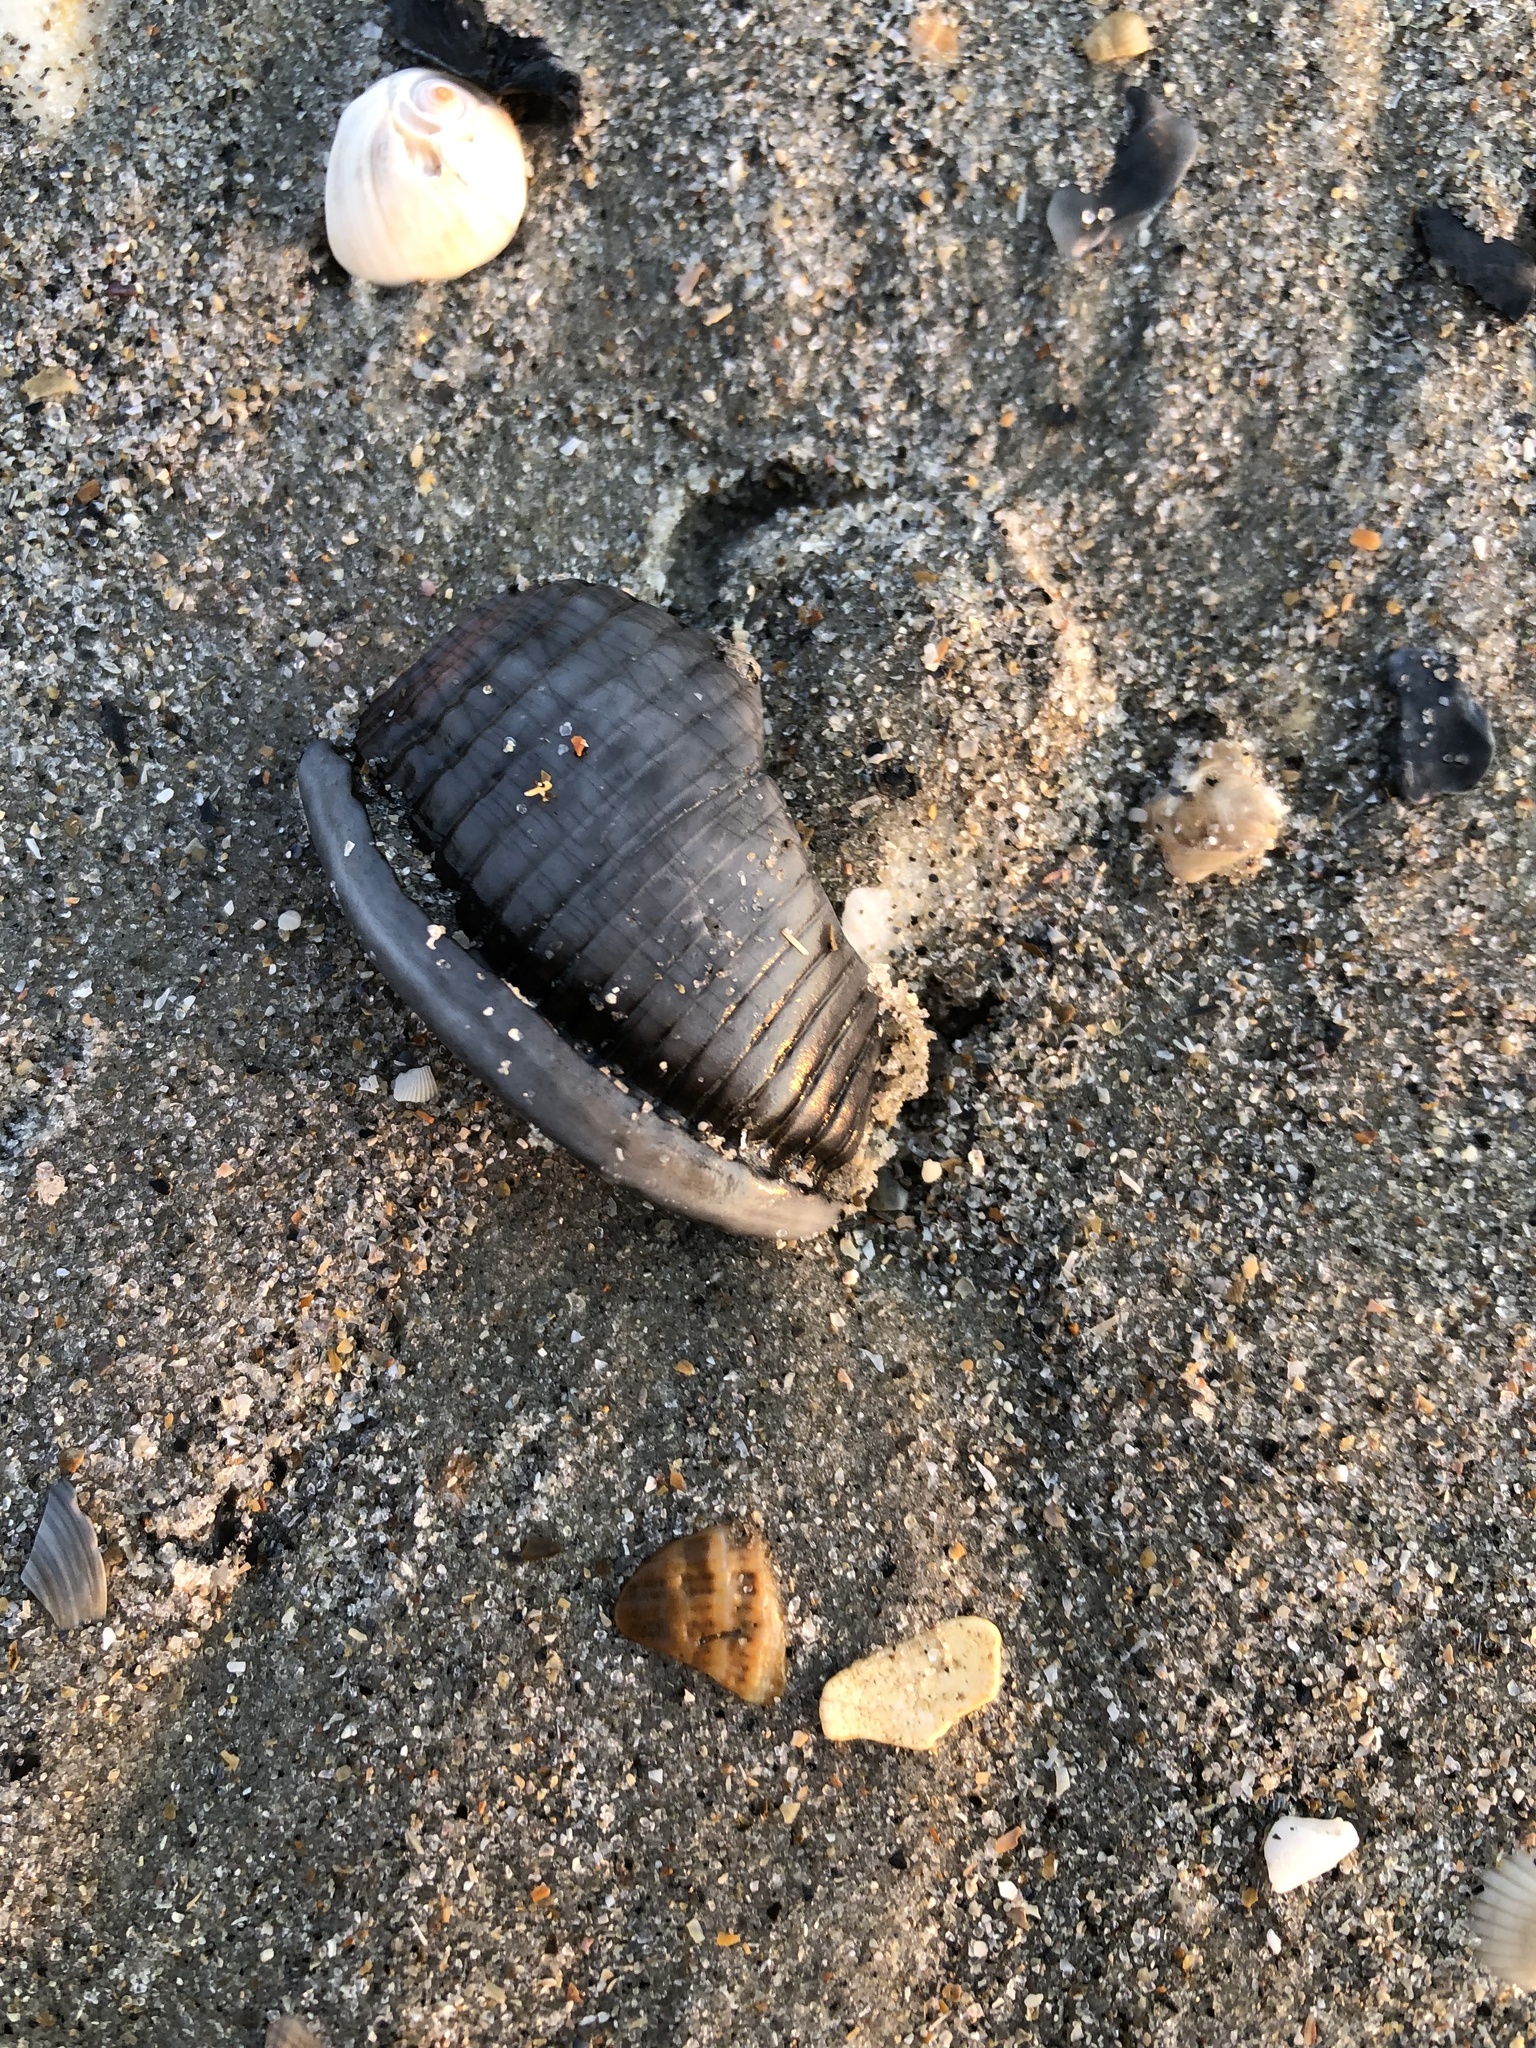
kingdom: Animalia
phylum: Mollusca
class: Gastropoda
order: Littorinimorpha
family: Cassidae
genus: Semicassis
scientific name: Semicassis granulata
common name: Scotch bonnet
